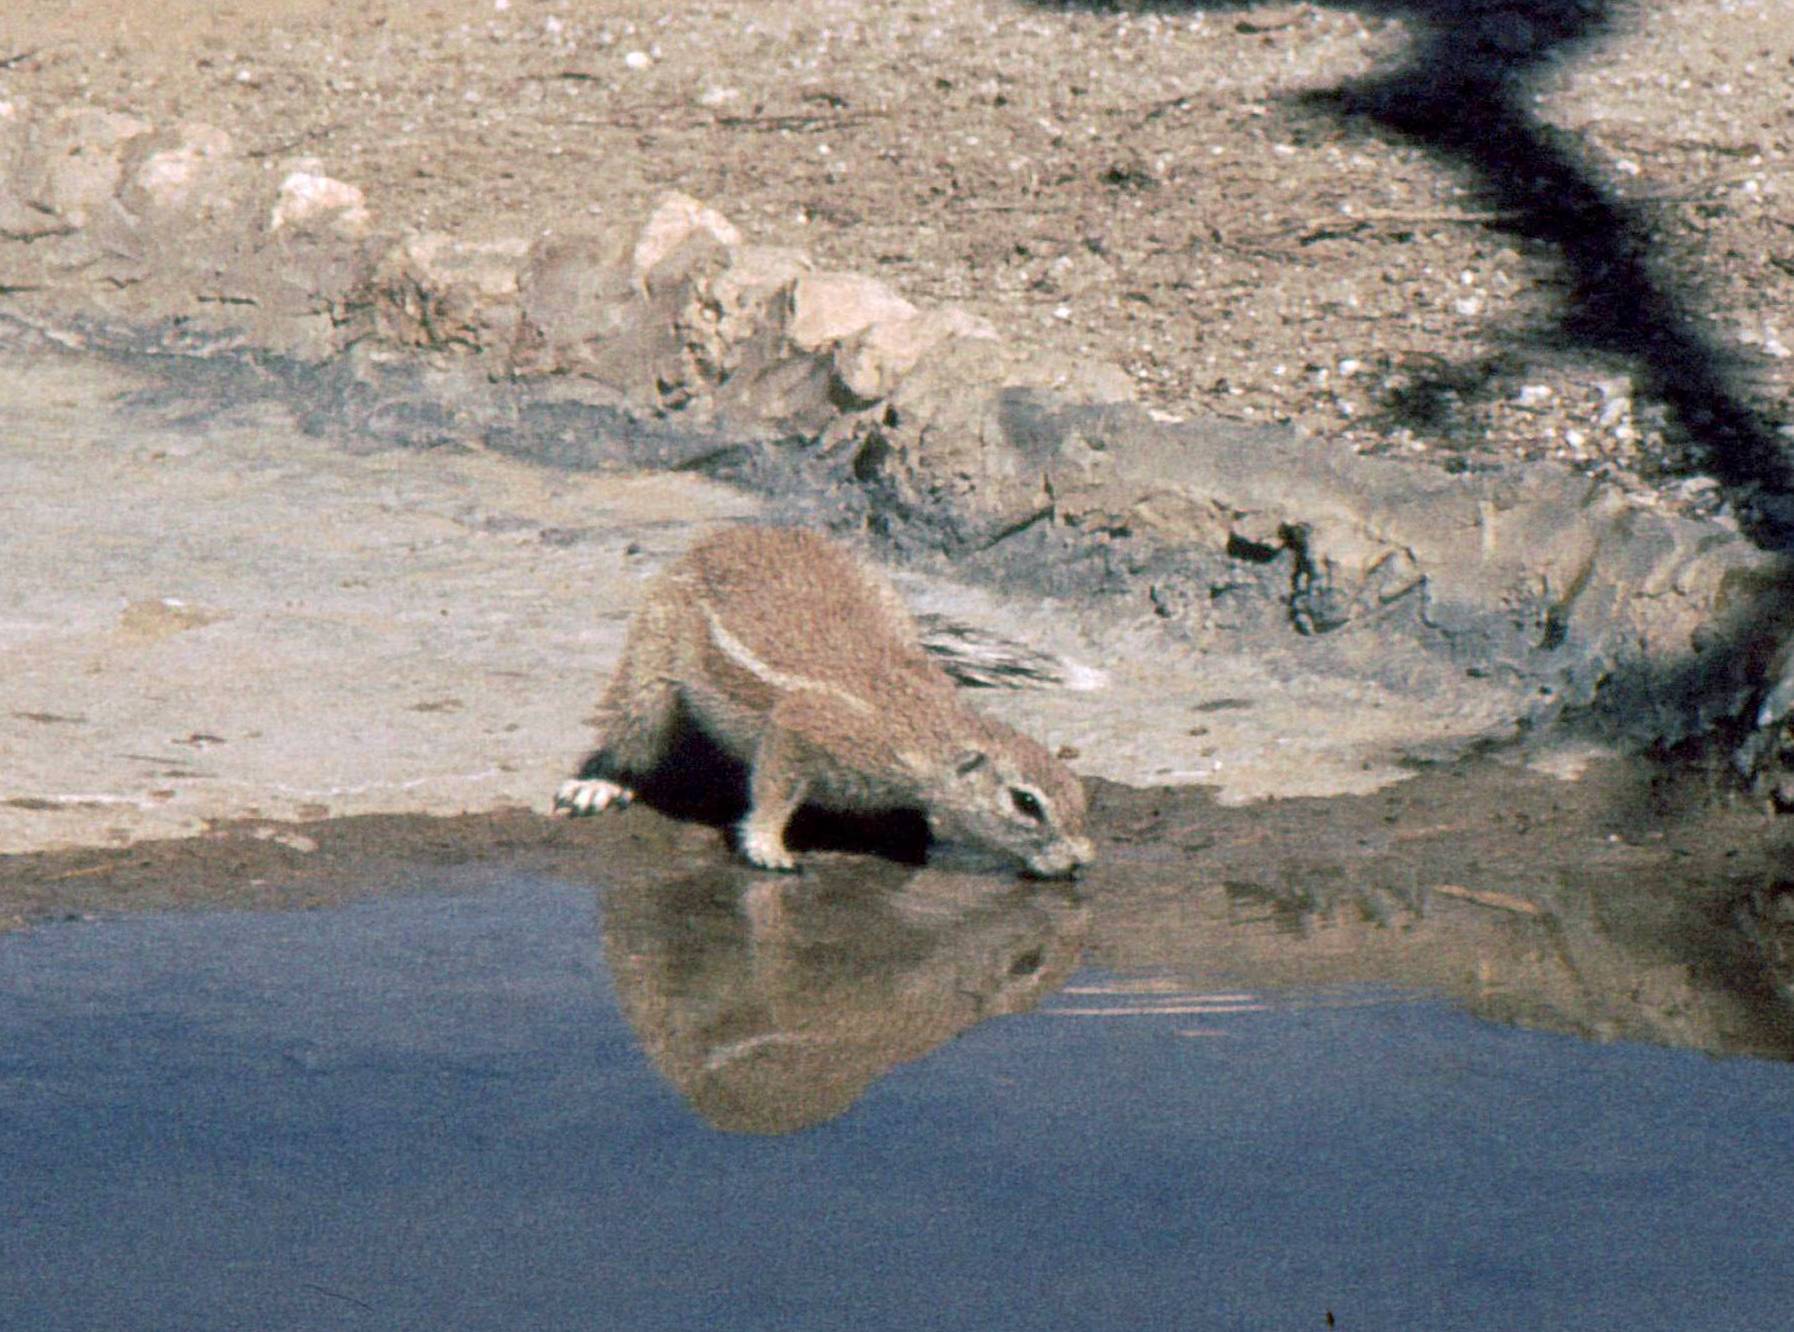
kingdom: Animalia
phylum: Chordata
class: Mammalia
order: Rodentia
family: Sciuridae
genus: Xerus
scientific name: Xerus inauris
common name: South african ground squirrel
